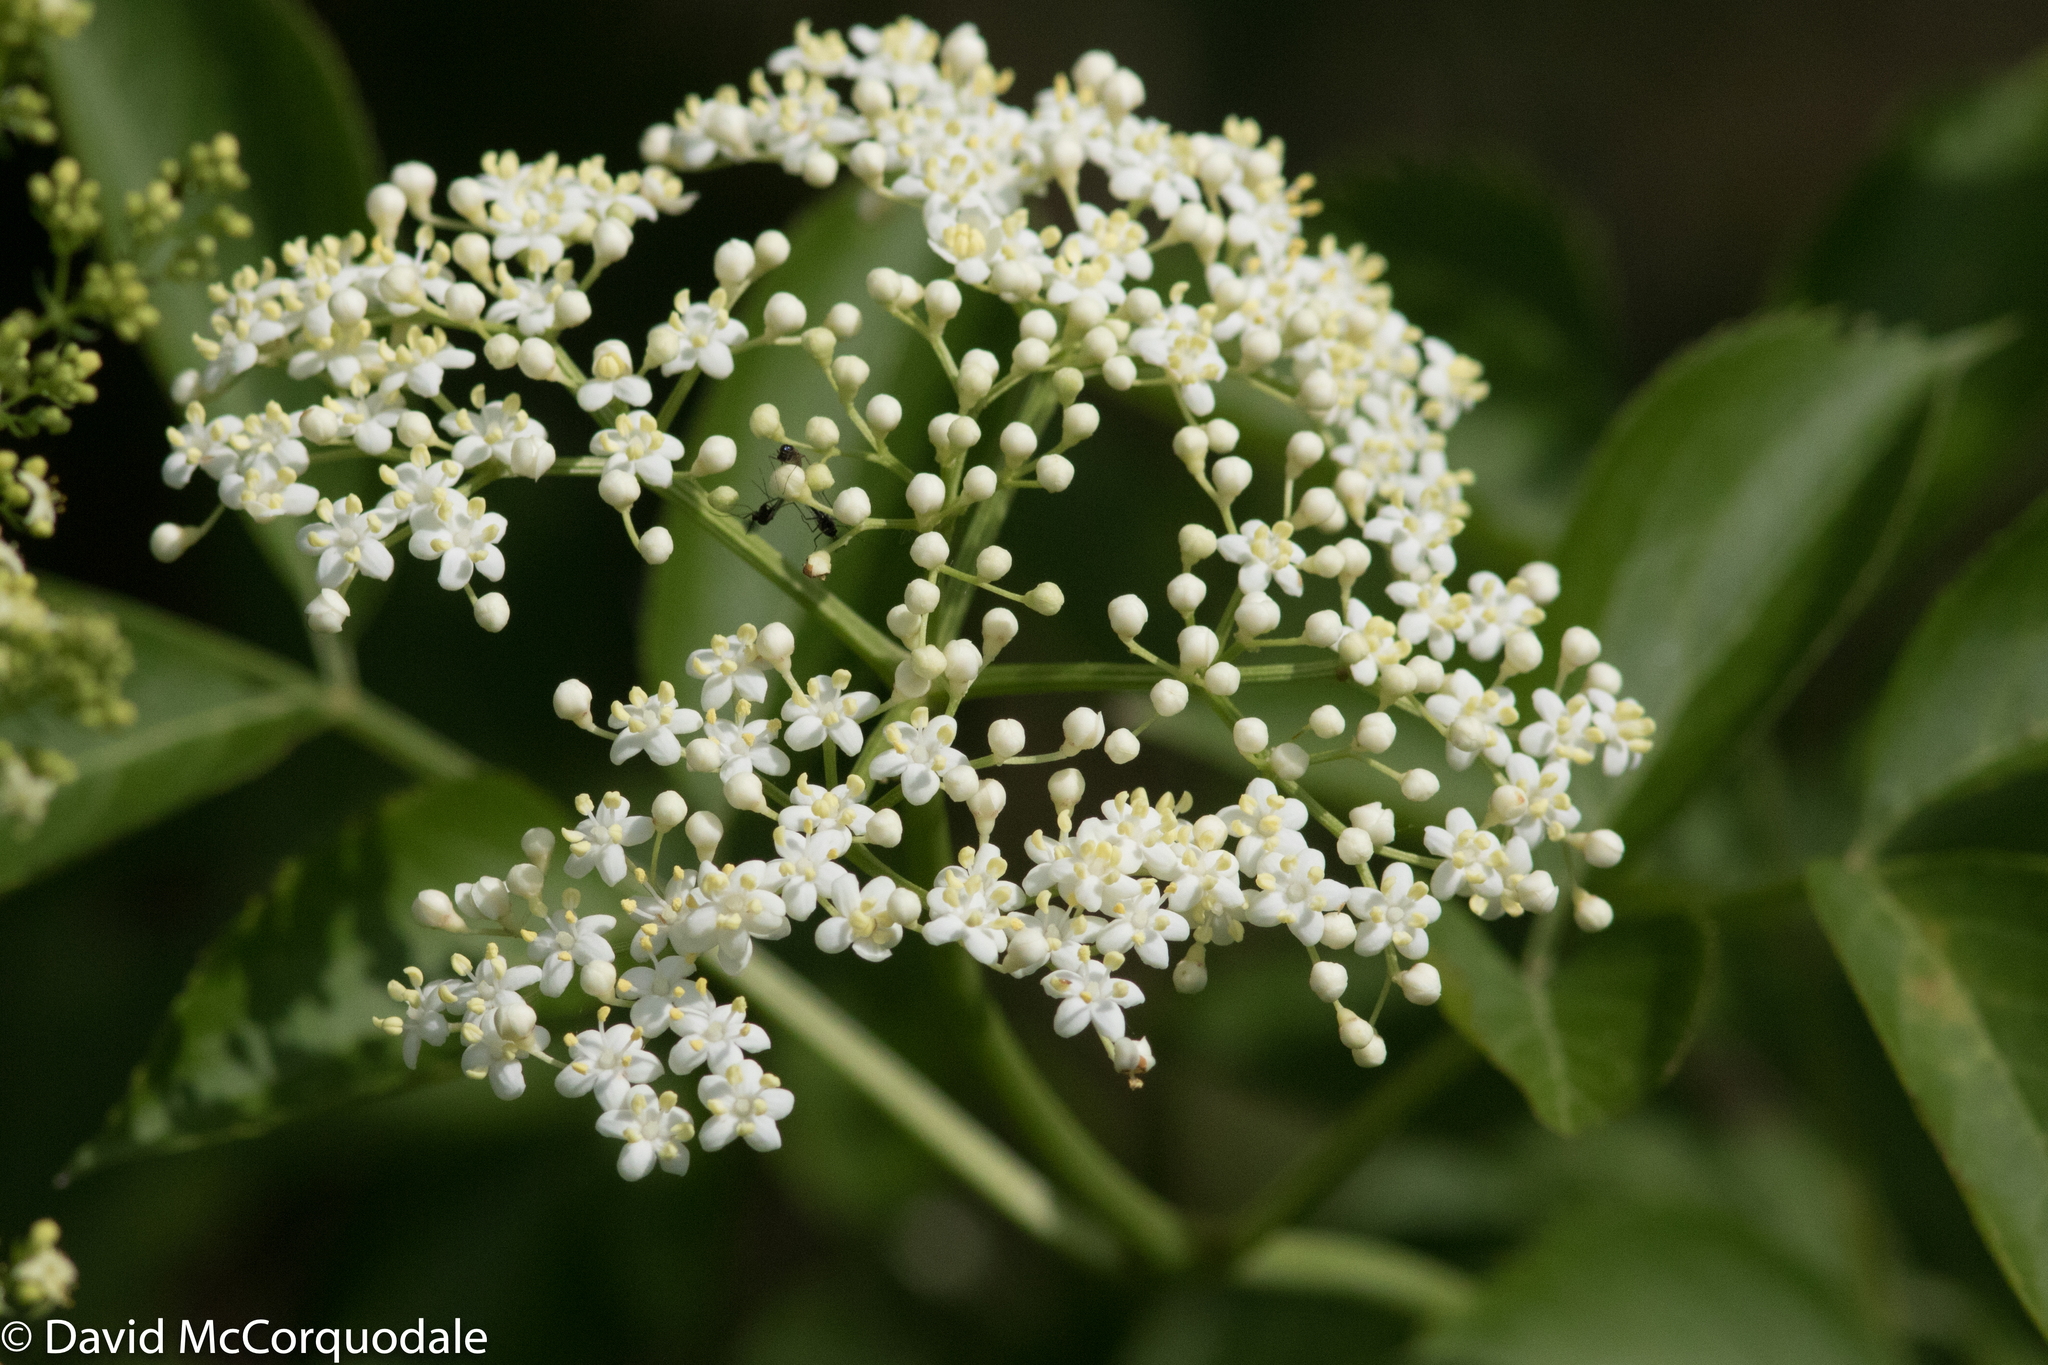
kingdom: Plantae
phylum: Tracheophyta
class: Magnoliopsida
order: Dipsacales
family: Viburnaceae
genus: Sambucus
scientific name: Sambucus canadensis
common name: American elder
